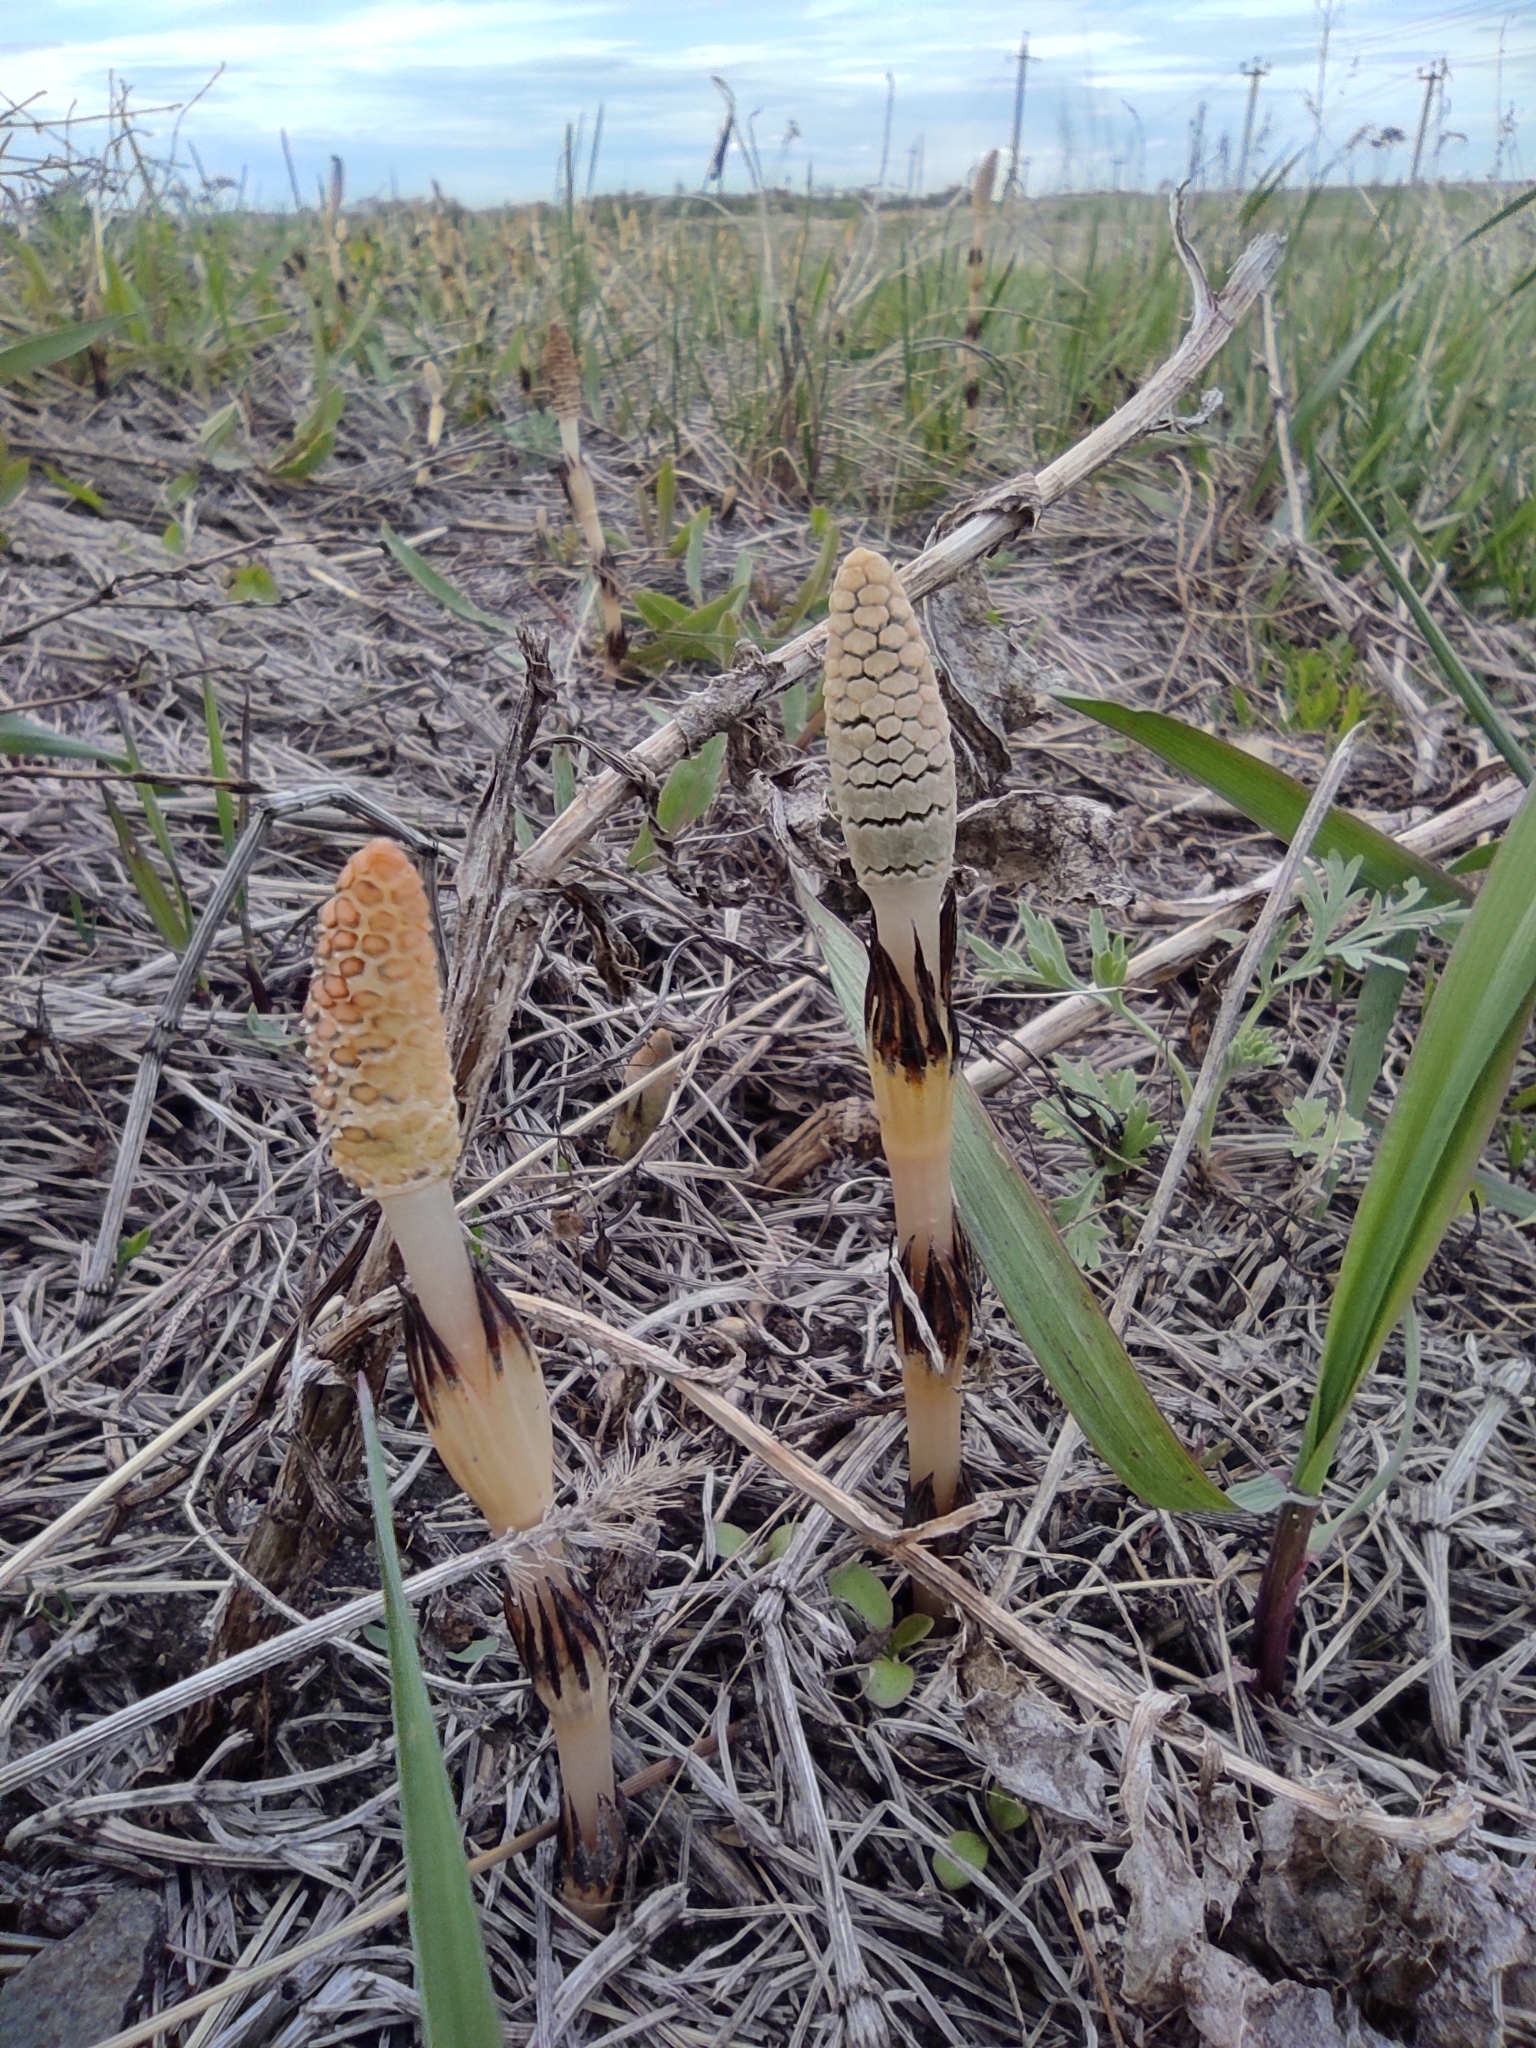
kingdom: Plantae
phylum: Tracheophyta
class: Polypodiopsida
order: Equisetales
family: Equisetaceae
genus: Equisetum
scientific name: Equisetum arvense
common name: Field horsetail
